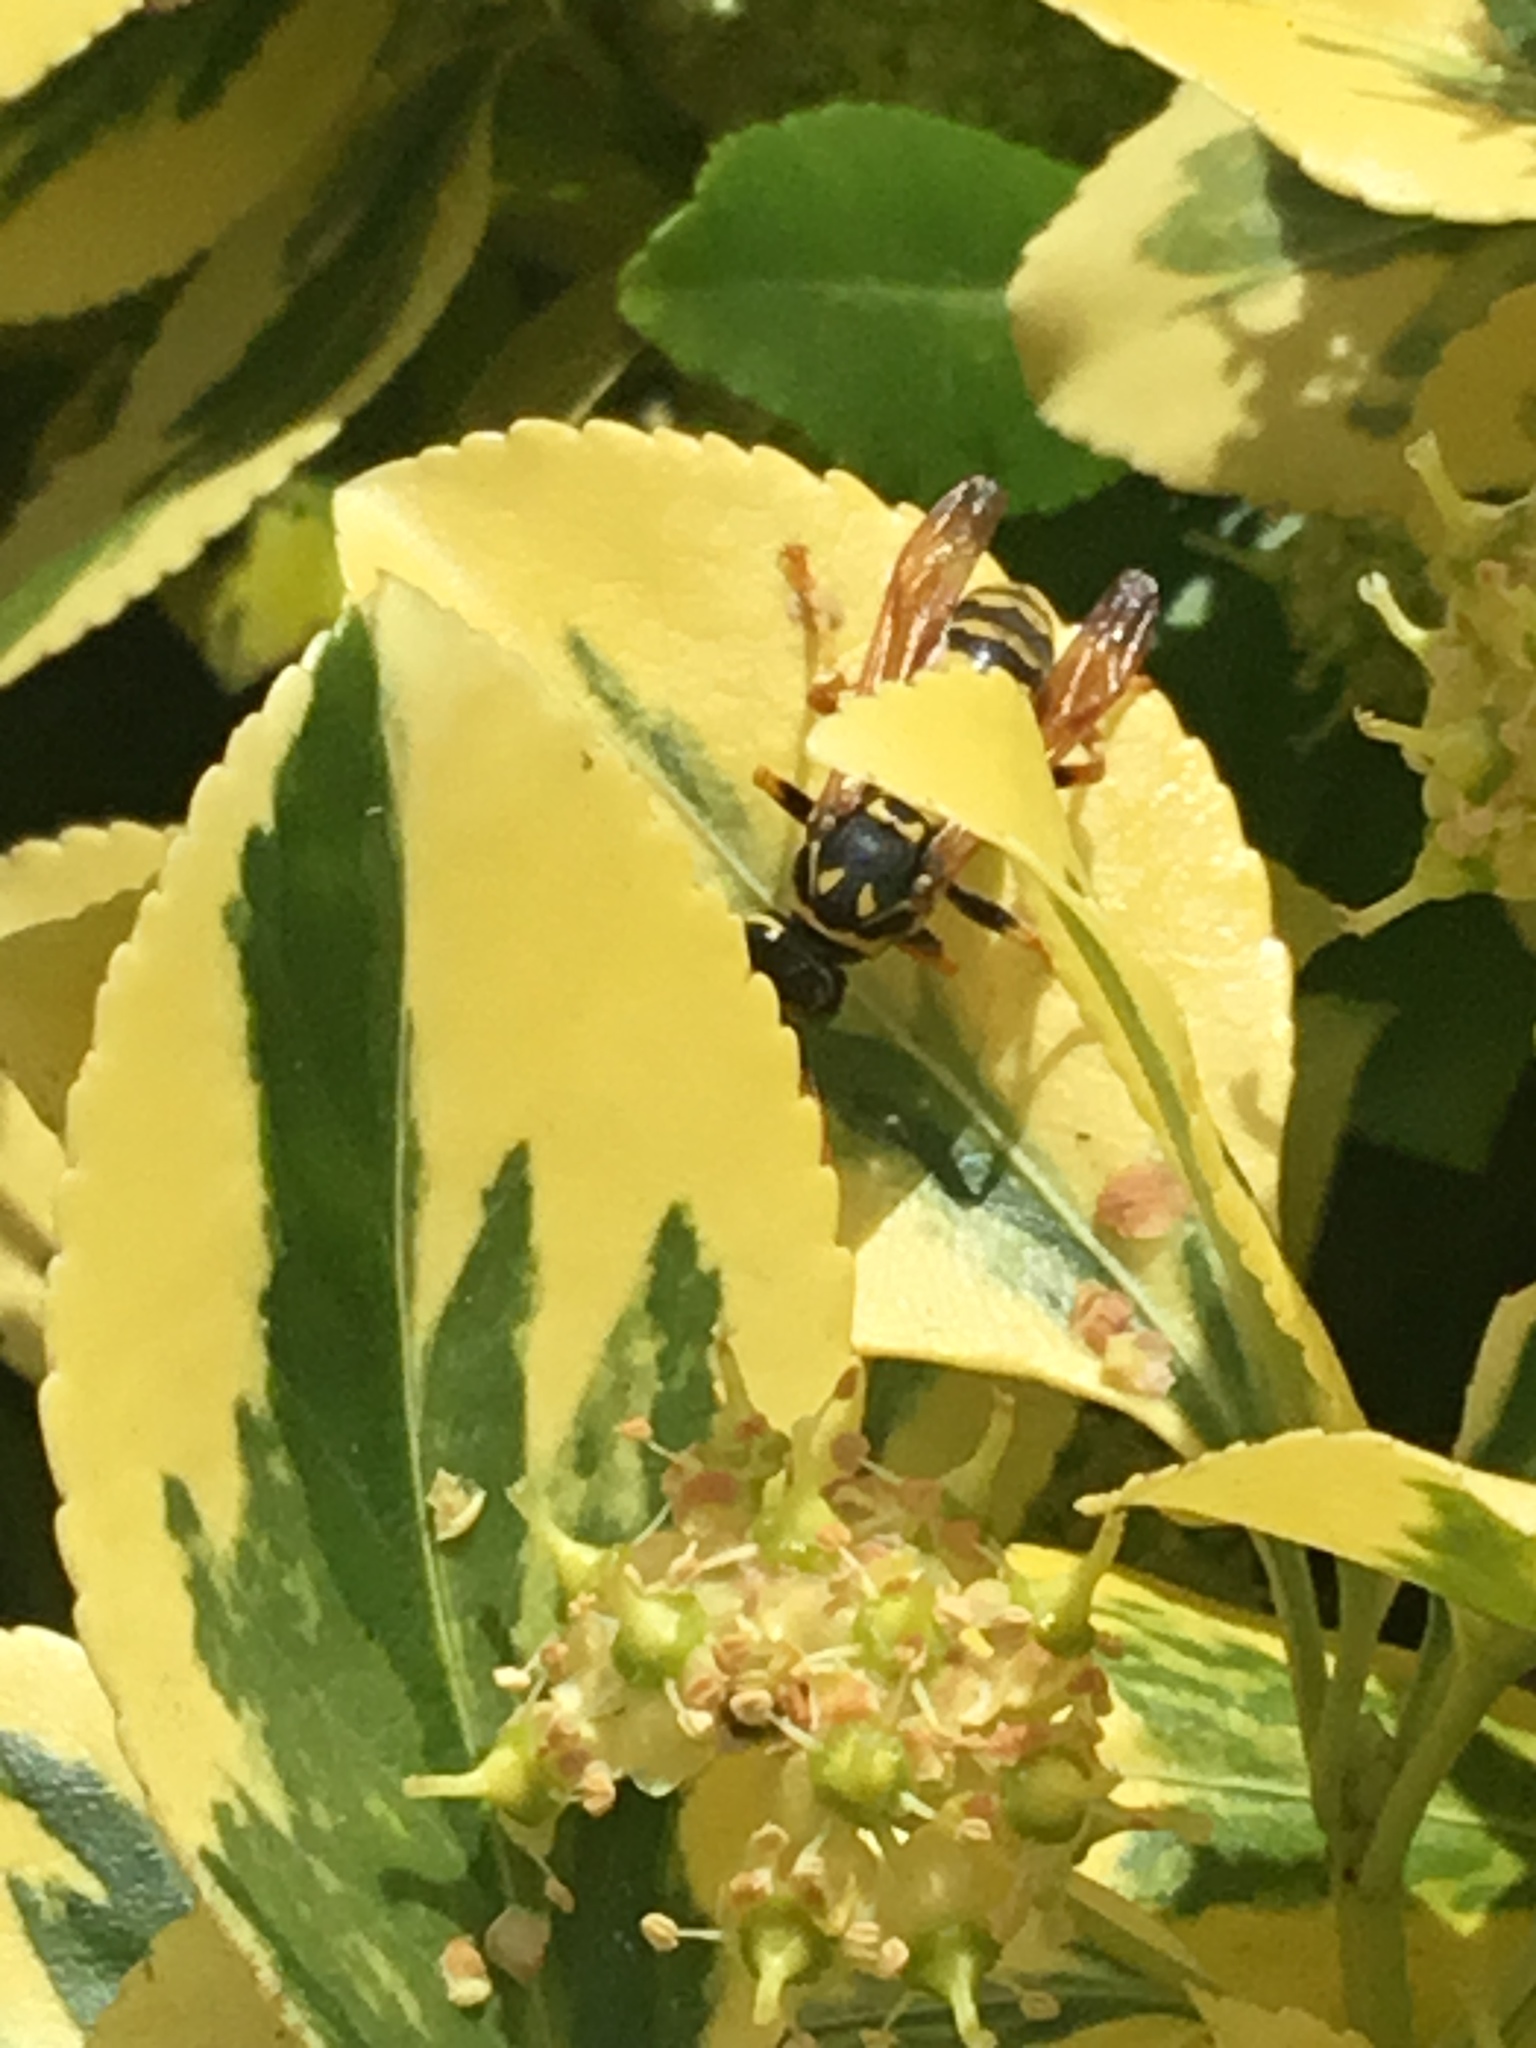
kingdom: Animalia
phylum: Arthropoda
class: Insecta
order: Hymenoptera
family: Eumenidae
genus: Polistes
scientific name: Polistes dominula
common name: Paper wasp
